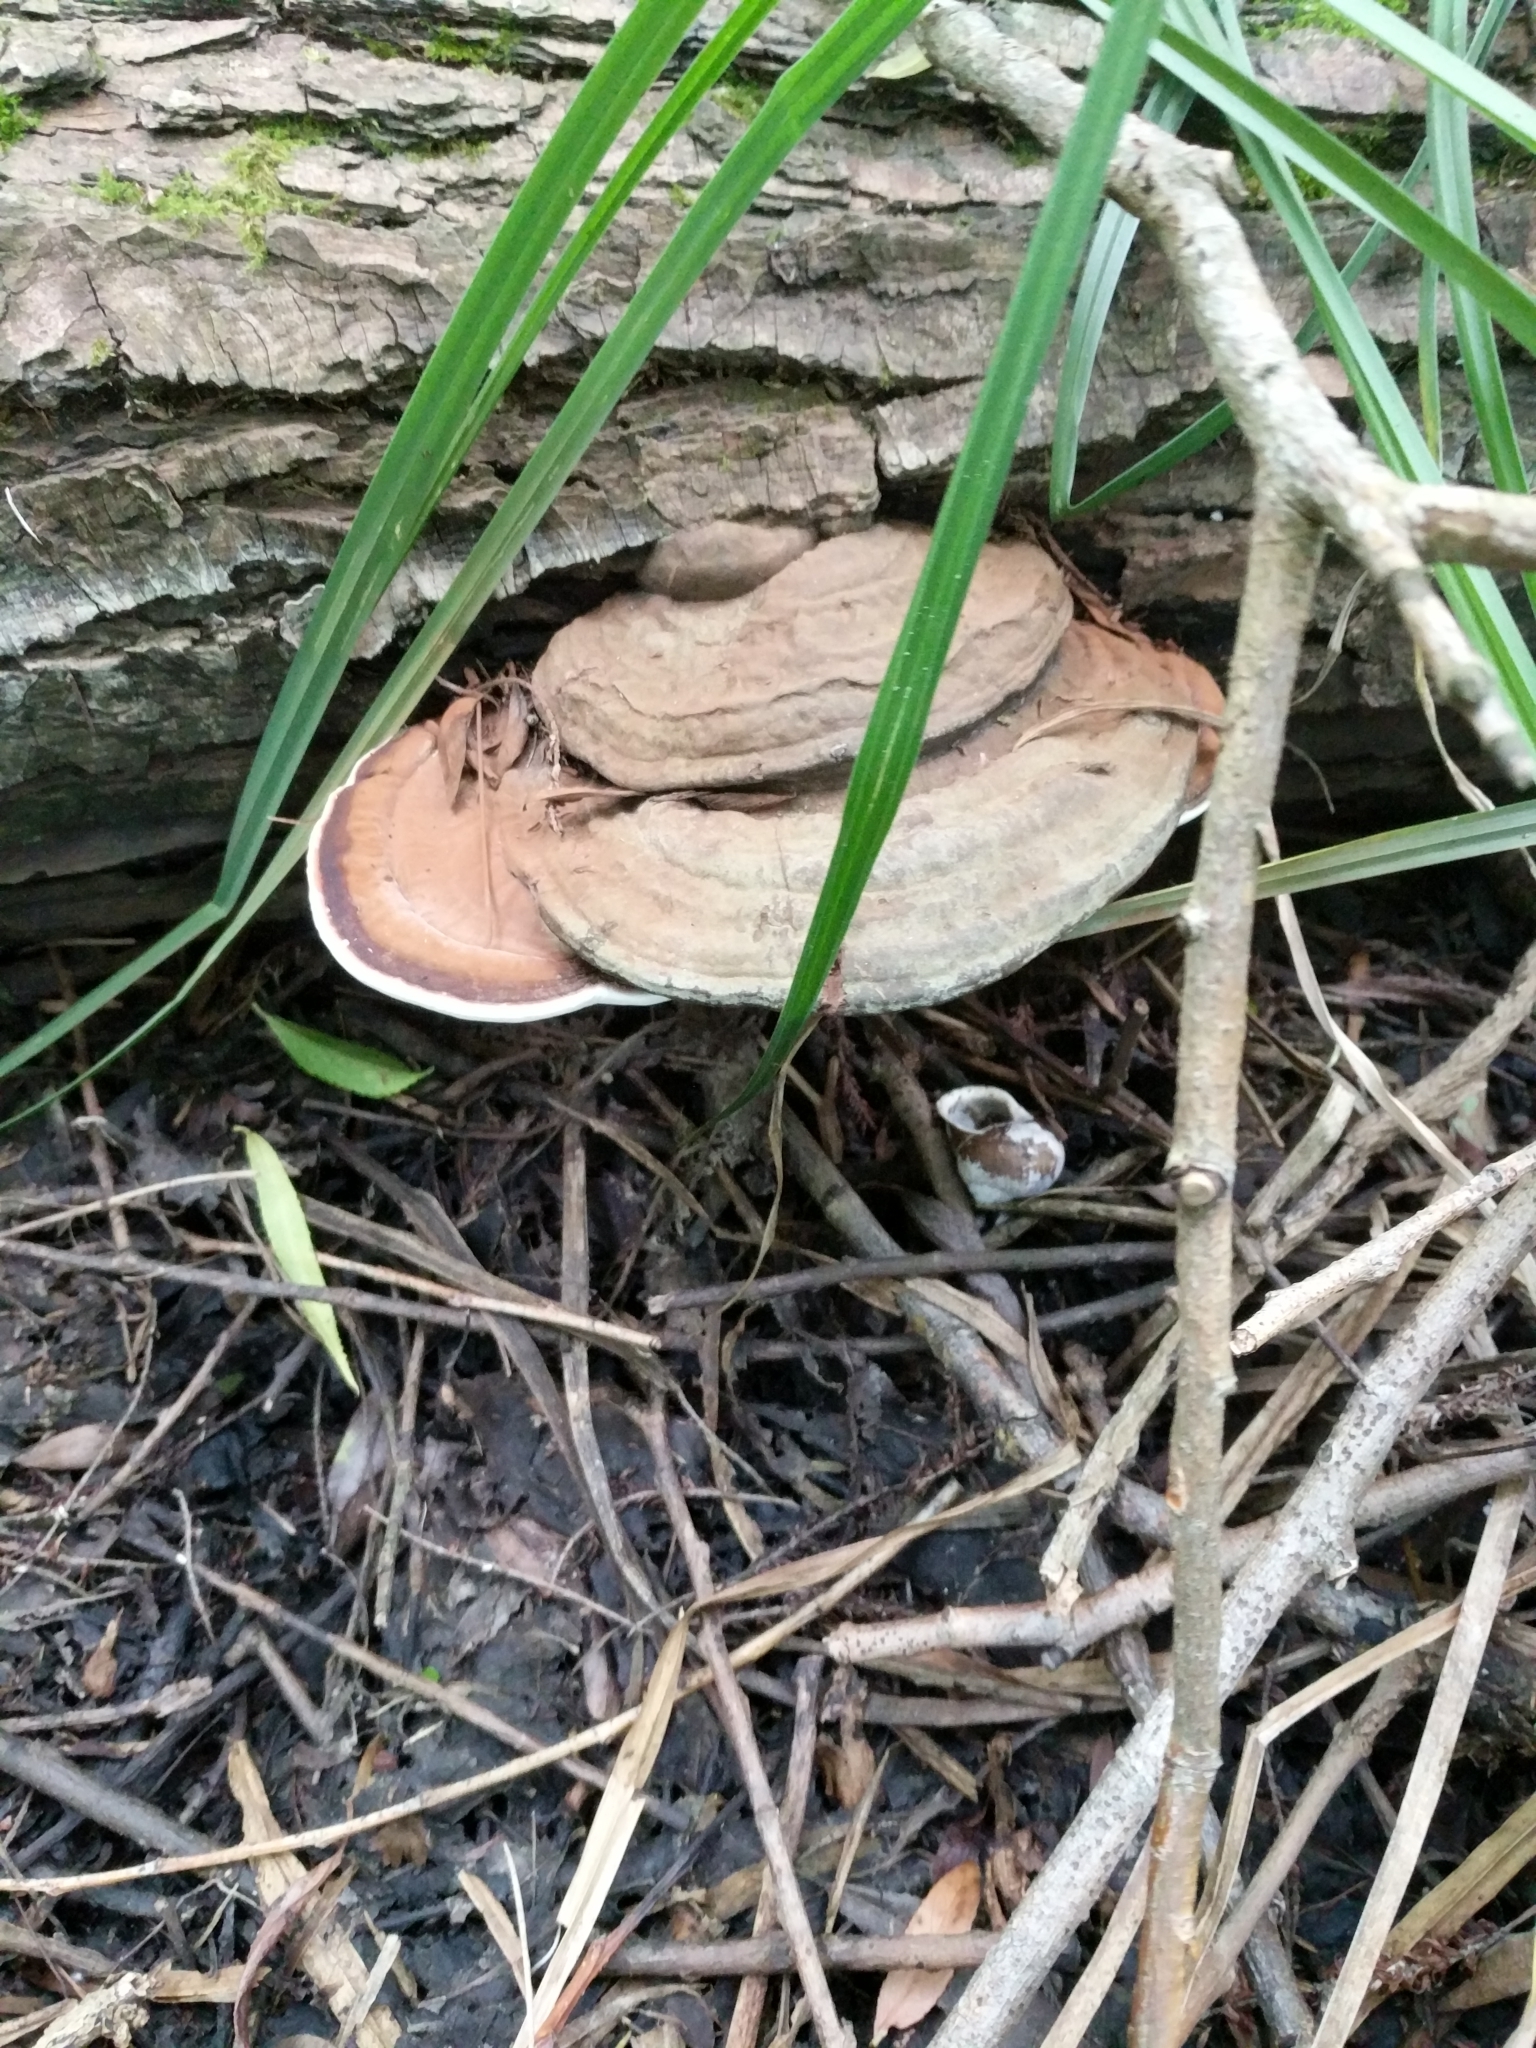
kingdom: Fungi
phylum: Basidiomycota
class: Agaricomycetes
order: Polyporales
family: Polyporaceae
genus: Ganoderma
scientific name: Ganoderma applanatum
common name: Artist's bracket
